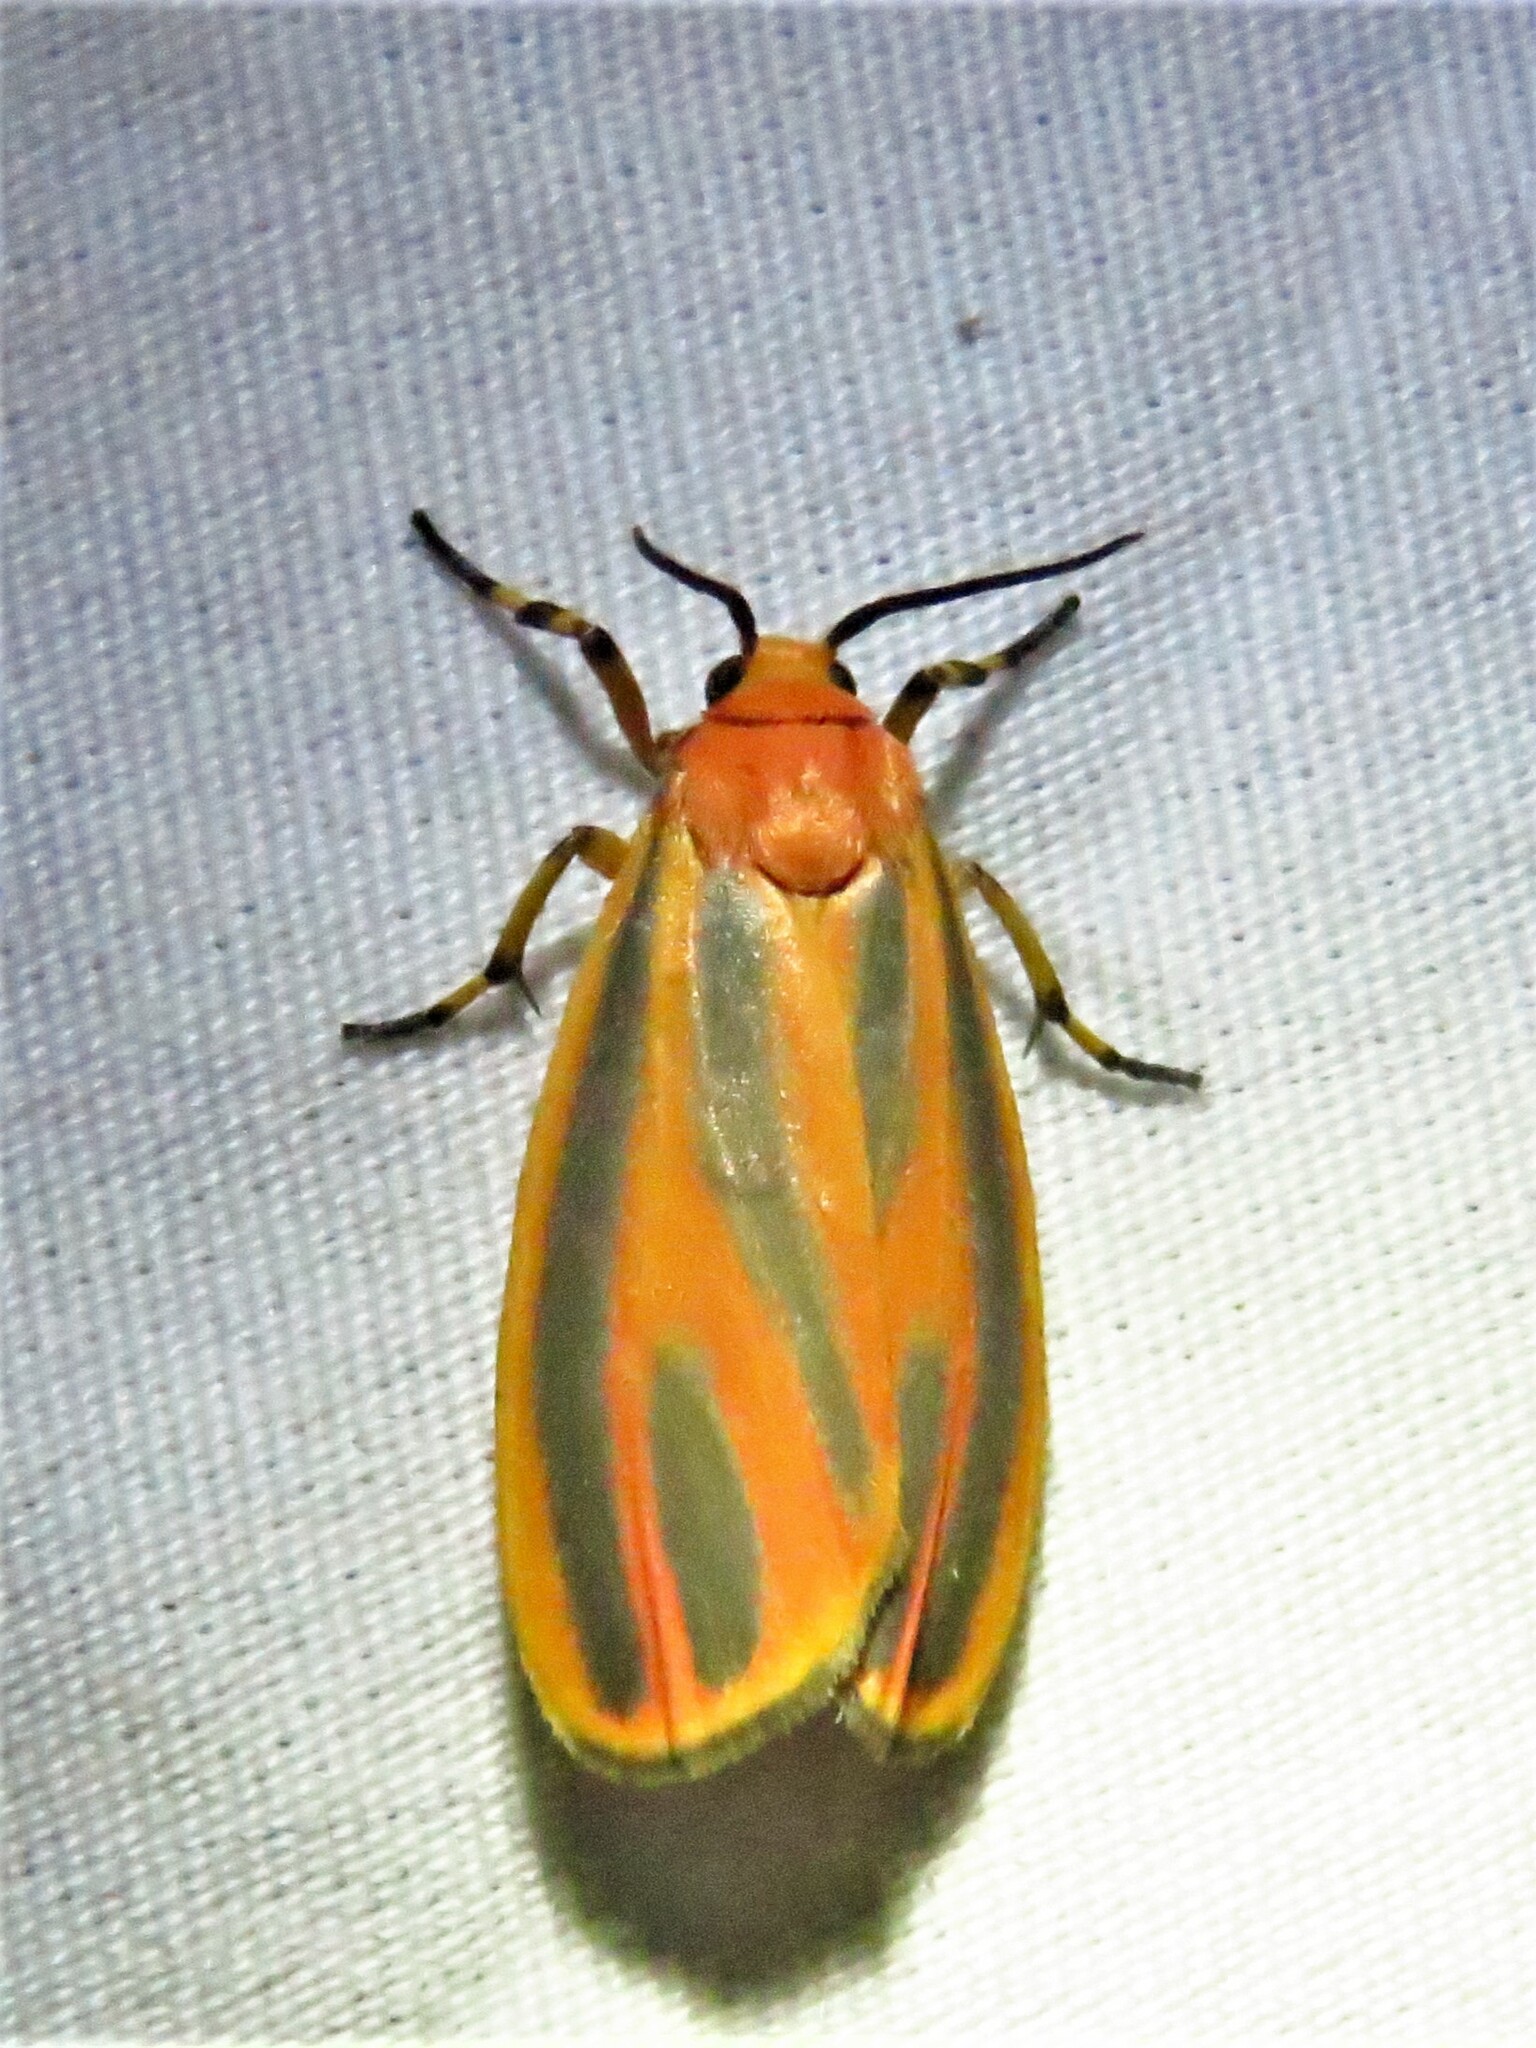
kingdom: Animalia
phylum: Arthropoda
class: Insecta
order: Lepidoptera
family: Erebidae
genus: Hypoprepia
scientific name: Hypoprepia fucosa
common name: Painted lichen moth
